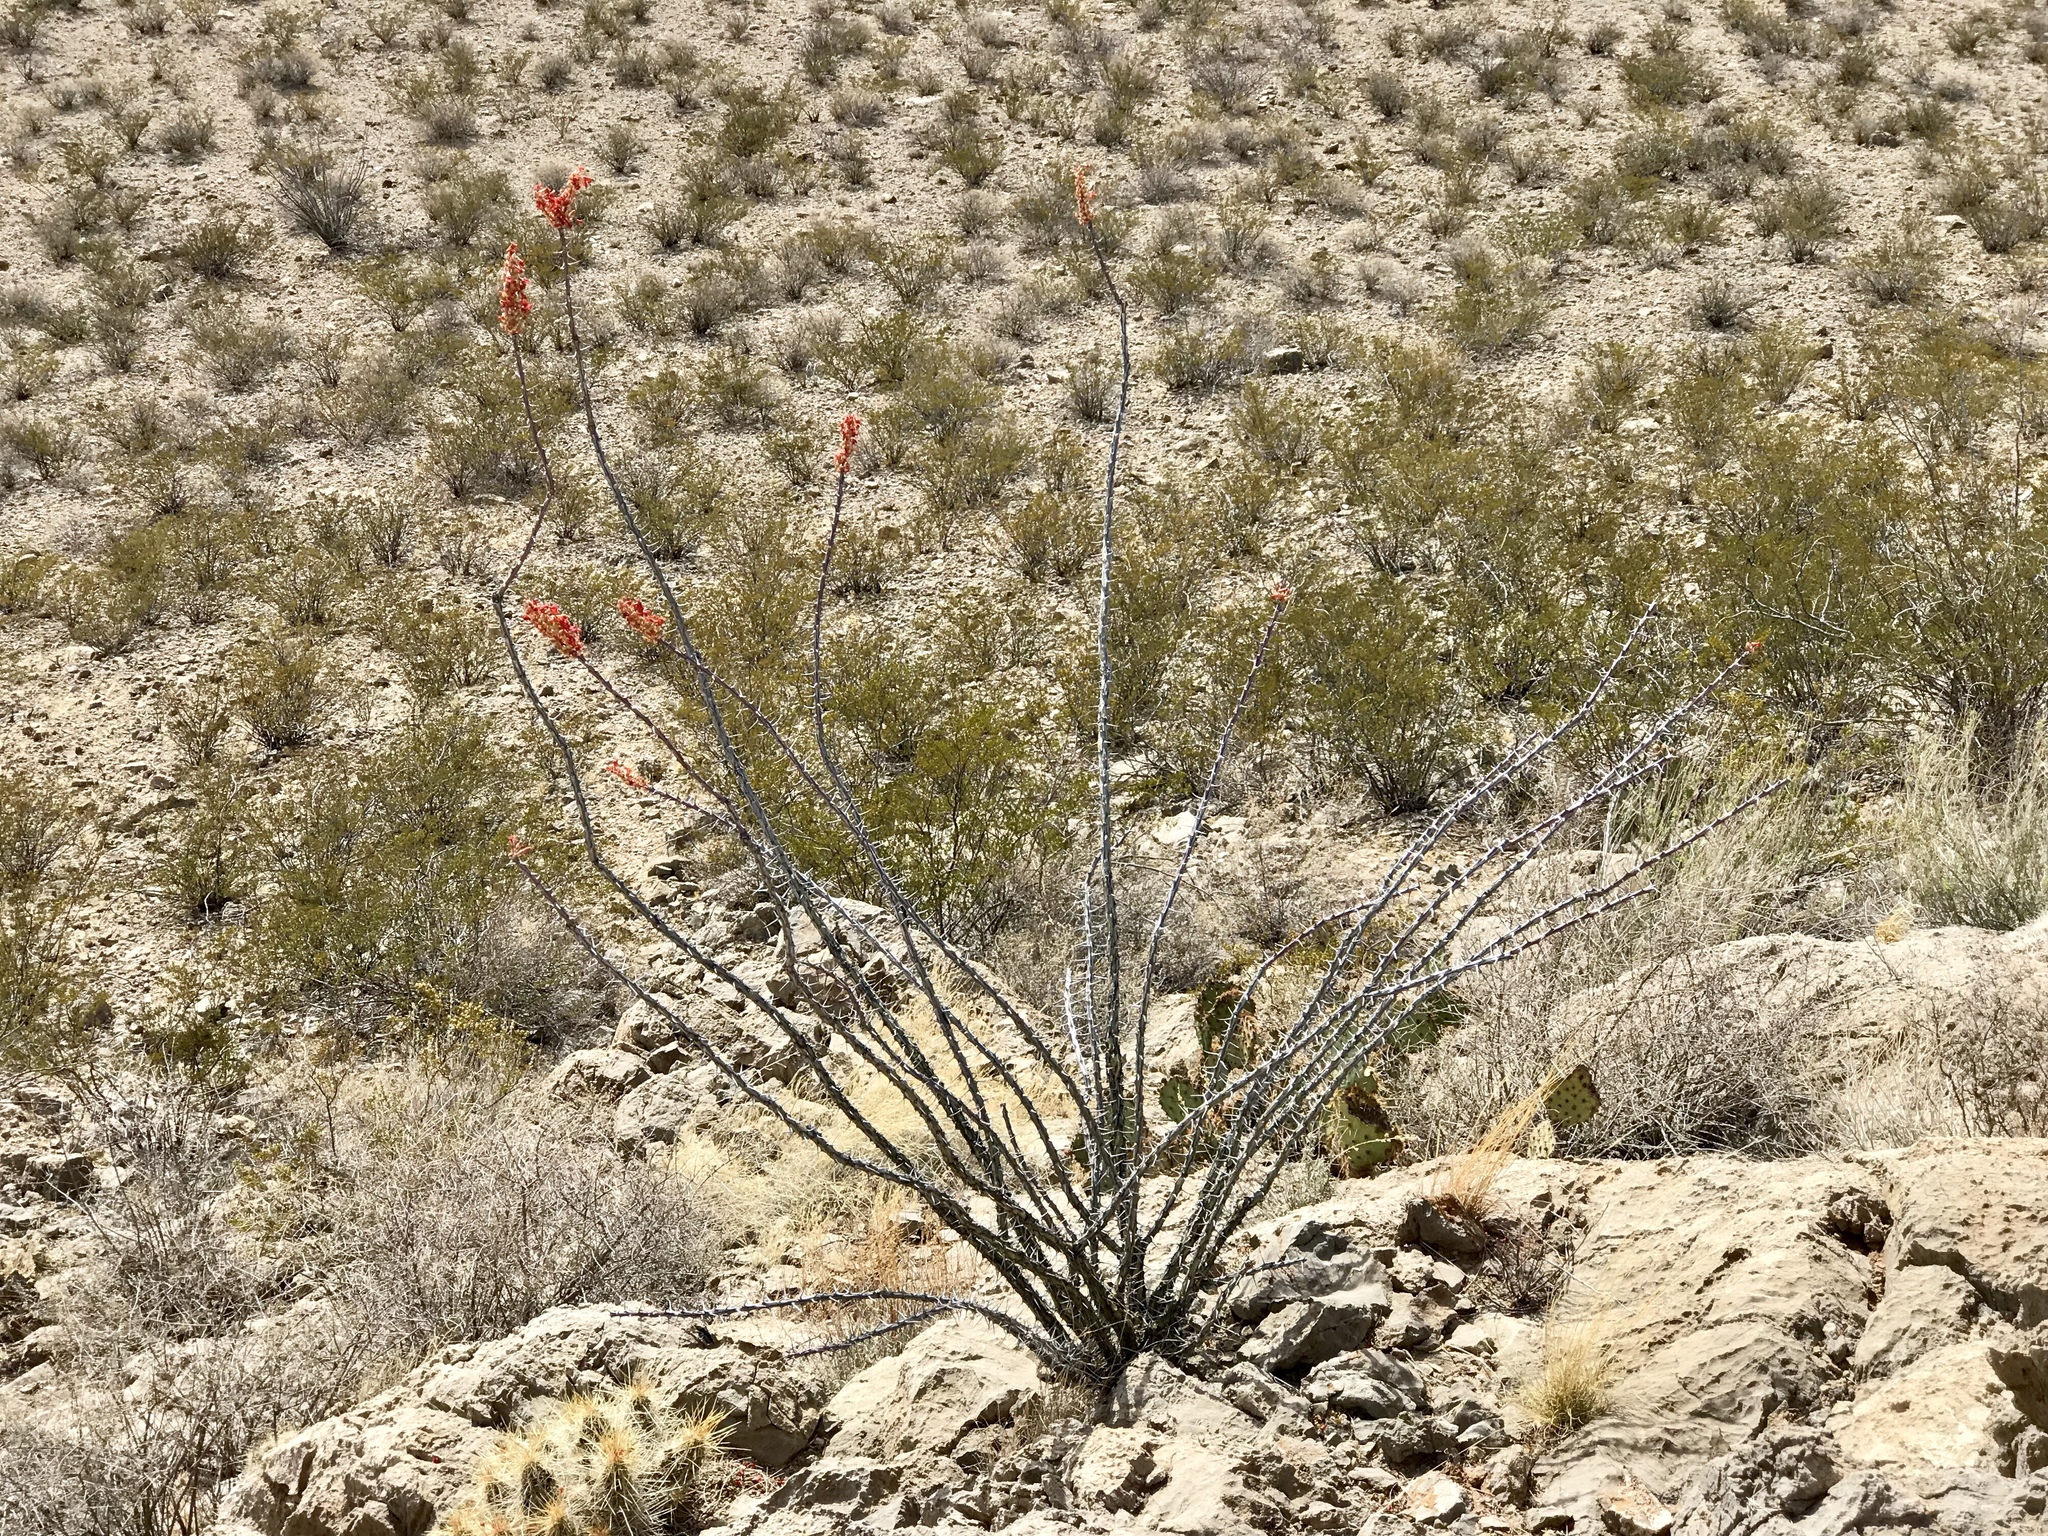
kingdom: Plantae
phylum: Tracheophyta
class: Magnoliopsida
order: Ericales
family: Fouquieriaceae
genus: Fouquieria
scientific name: Fouquieria splendens
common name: Vine-cactus
